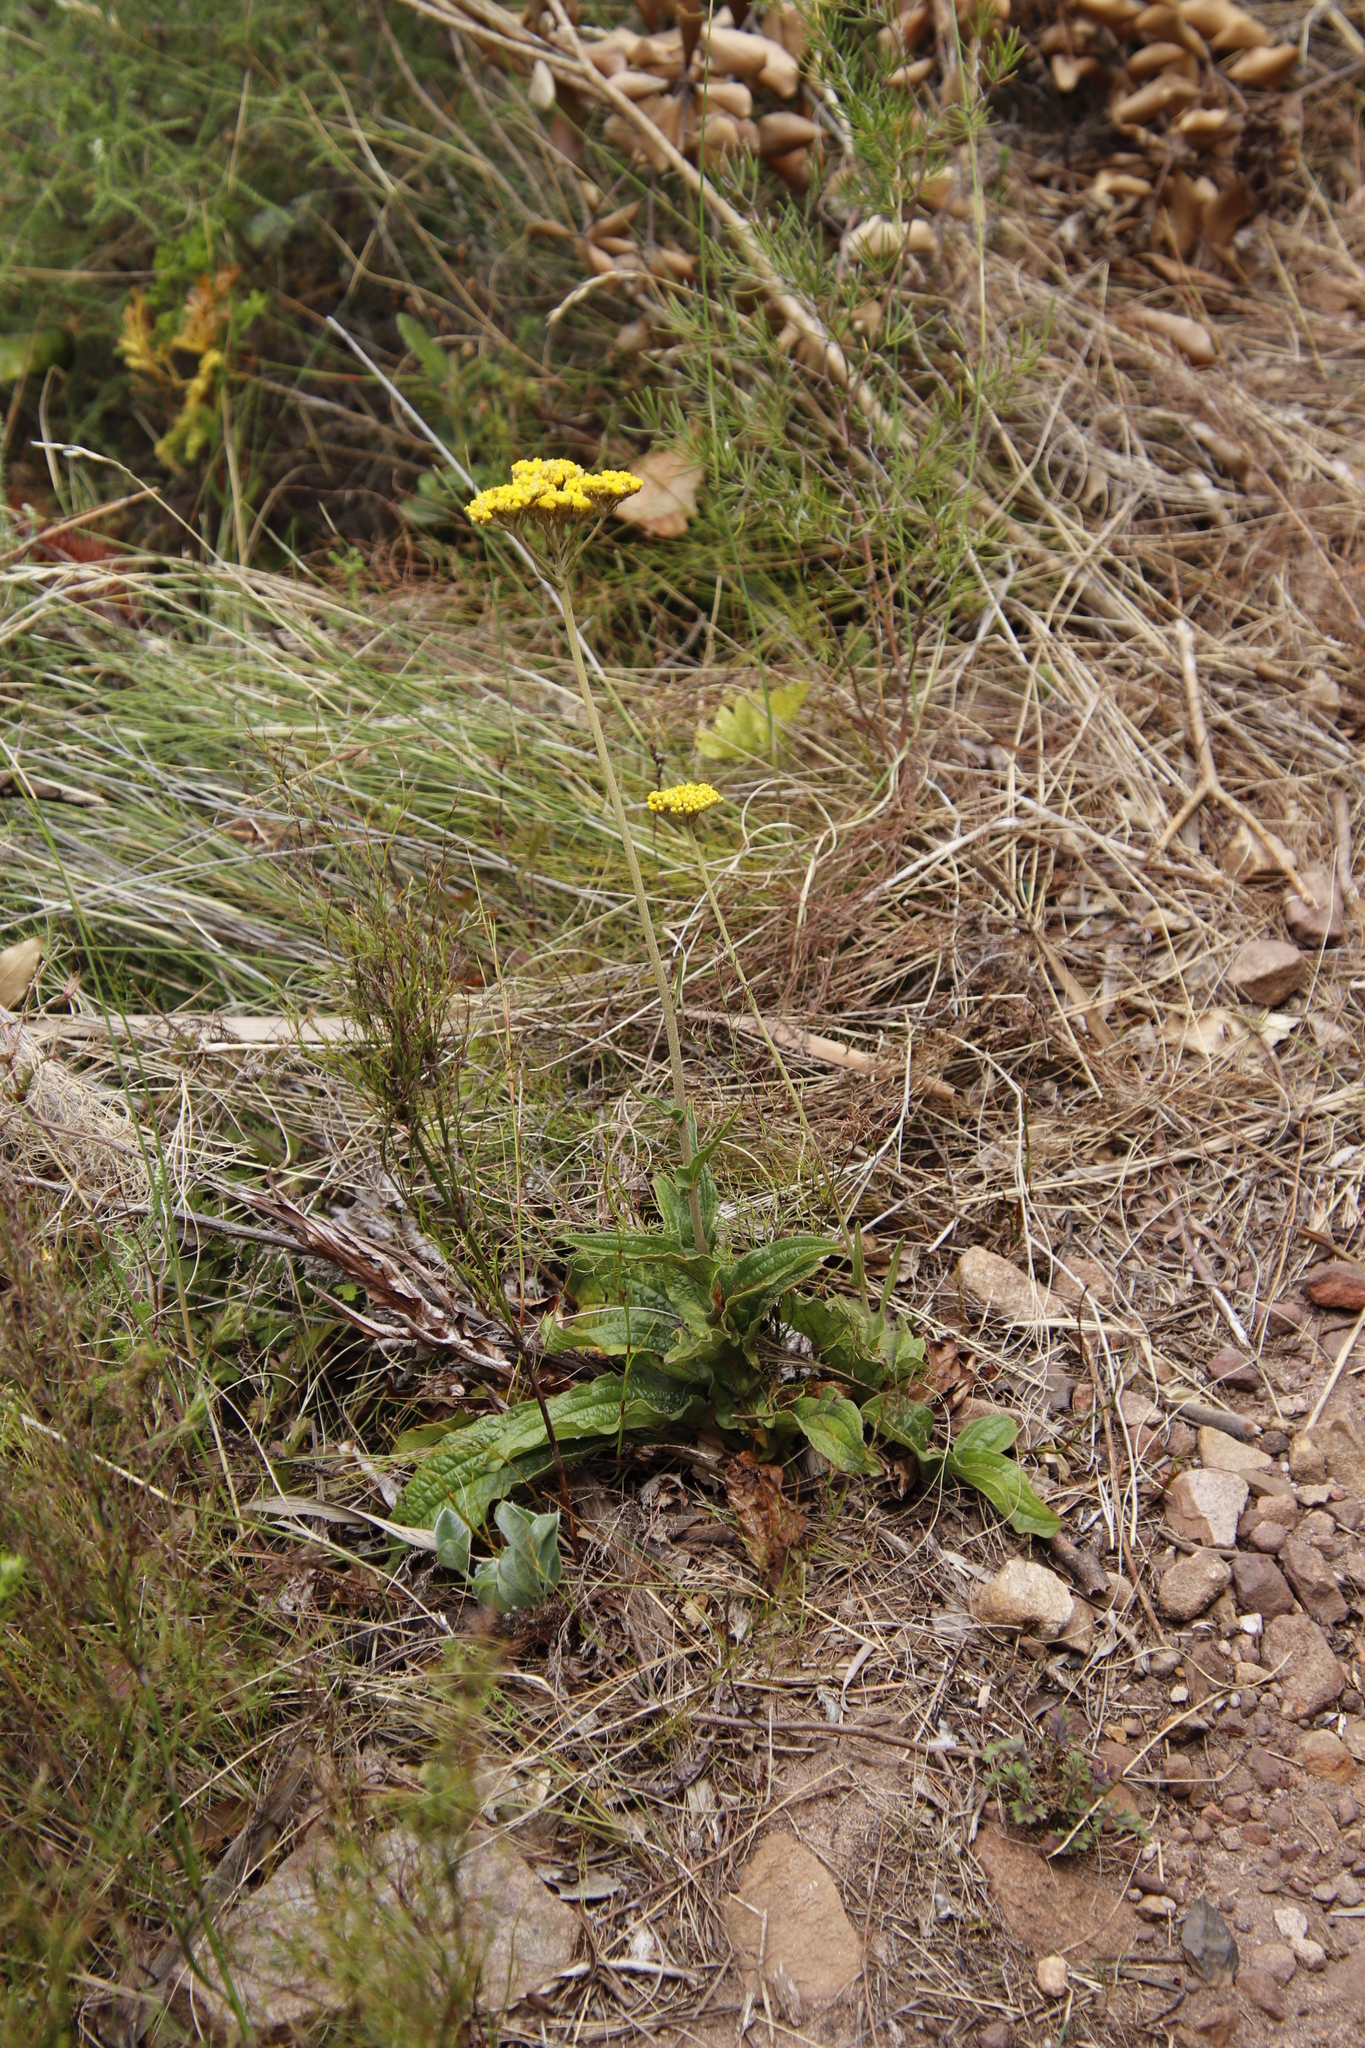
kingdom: Plantae
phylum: Tracheophyta
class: Magnoliopsida
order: Asterales
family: Asteraceae
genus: Helichrysum
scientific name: Helichrysum nudifolium
